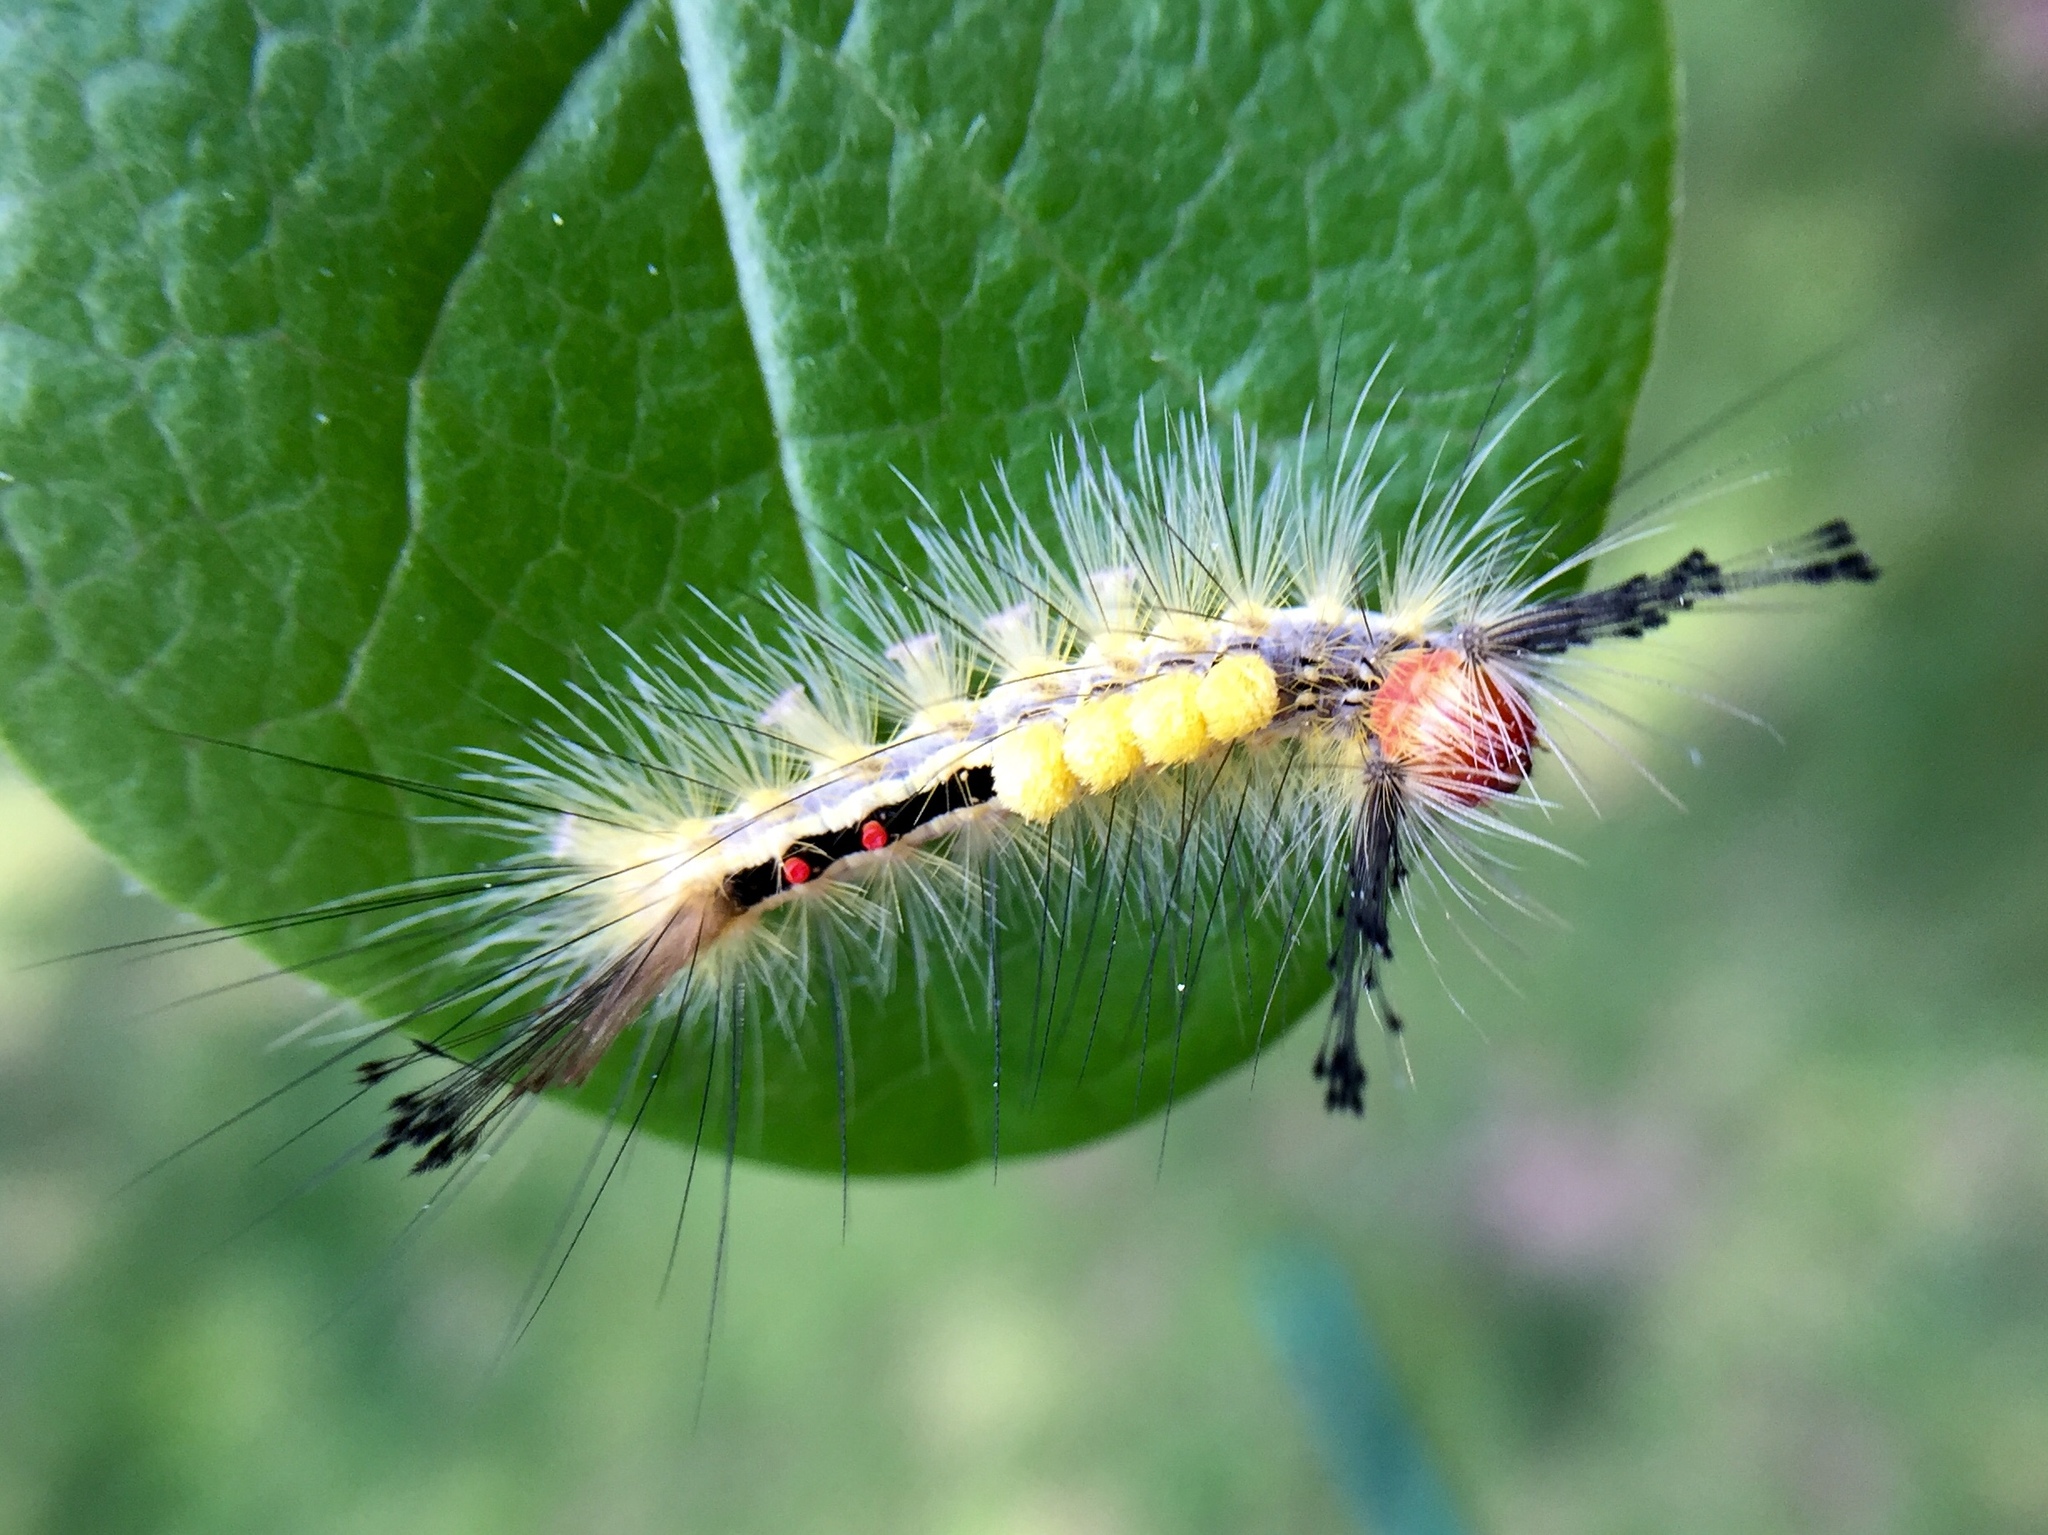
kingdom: Animalia
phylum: Arthropoda
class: Insecta
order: Lepidoptera
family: Erebidae
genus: Orgyia
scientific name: Orgyia leucostigma
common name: White-marked tussock moth
